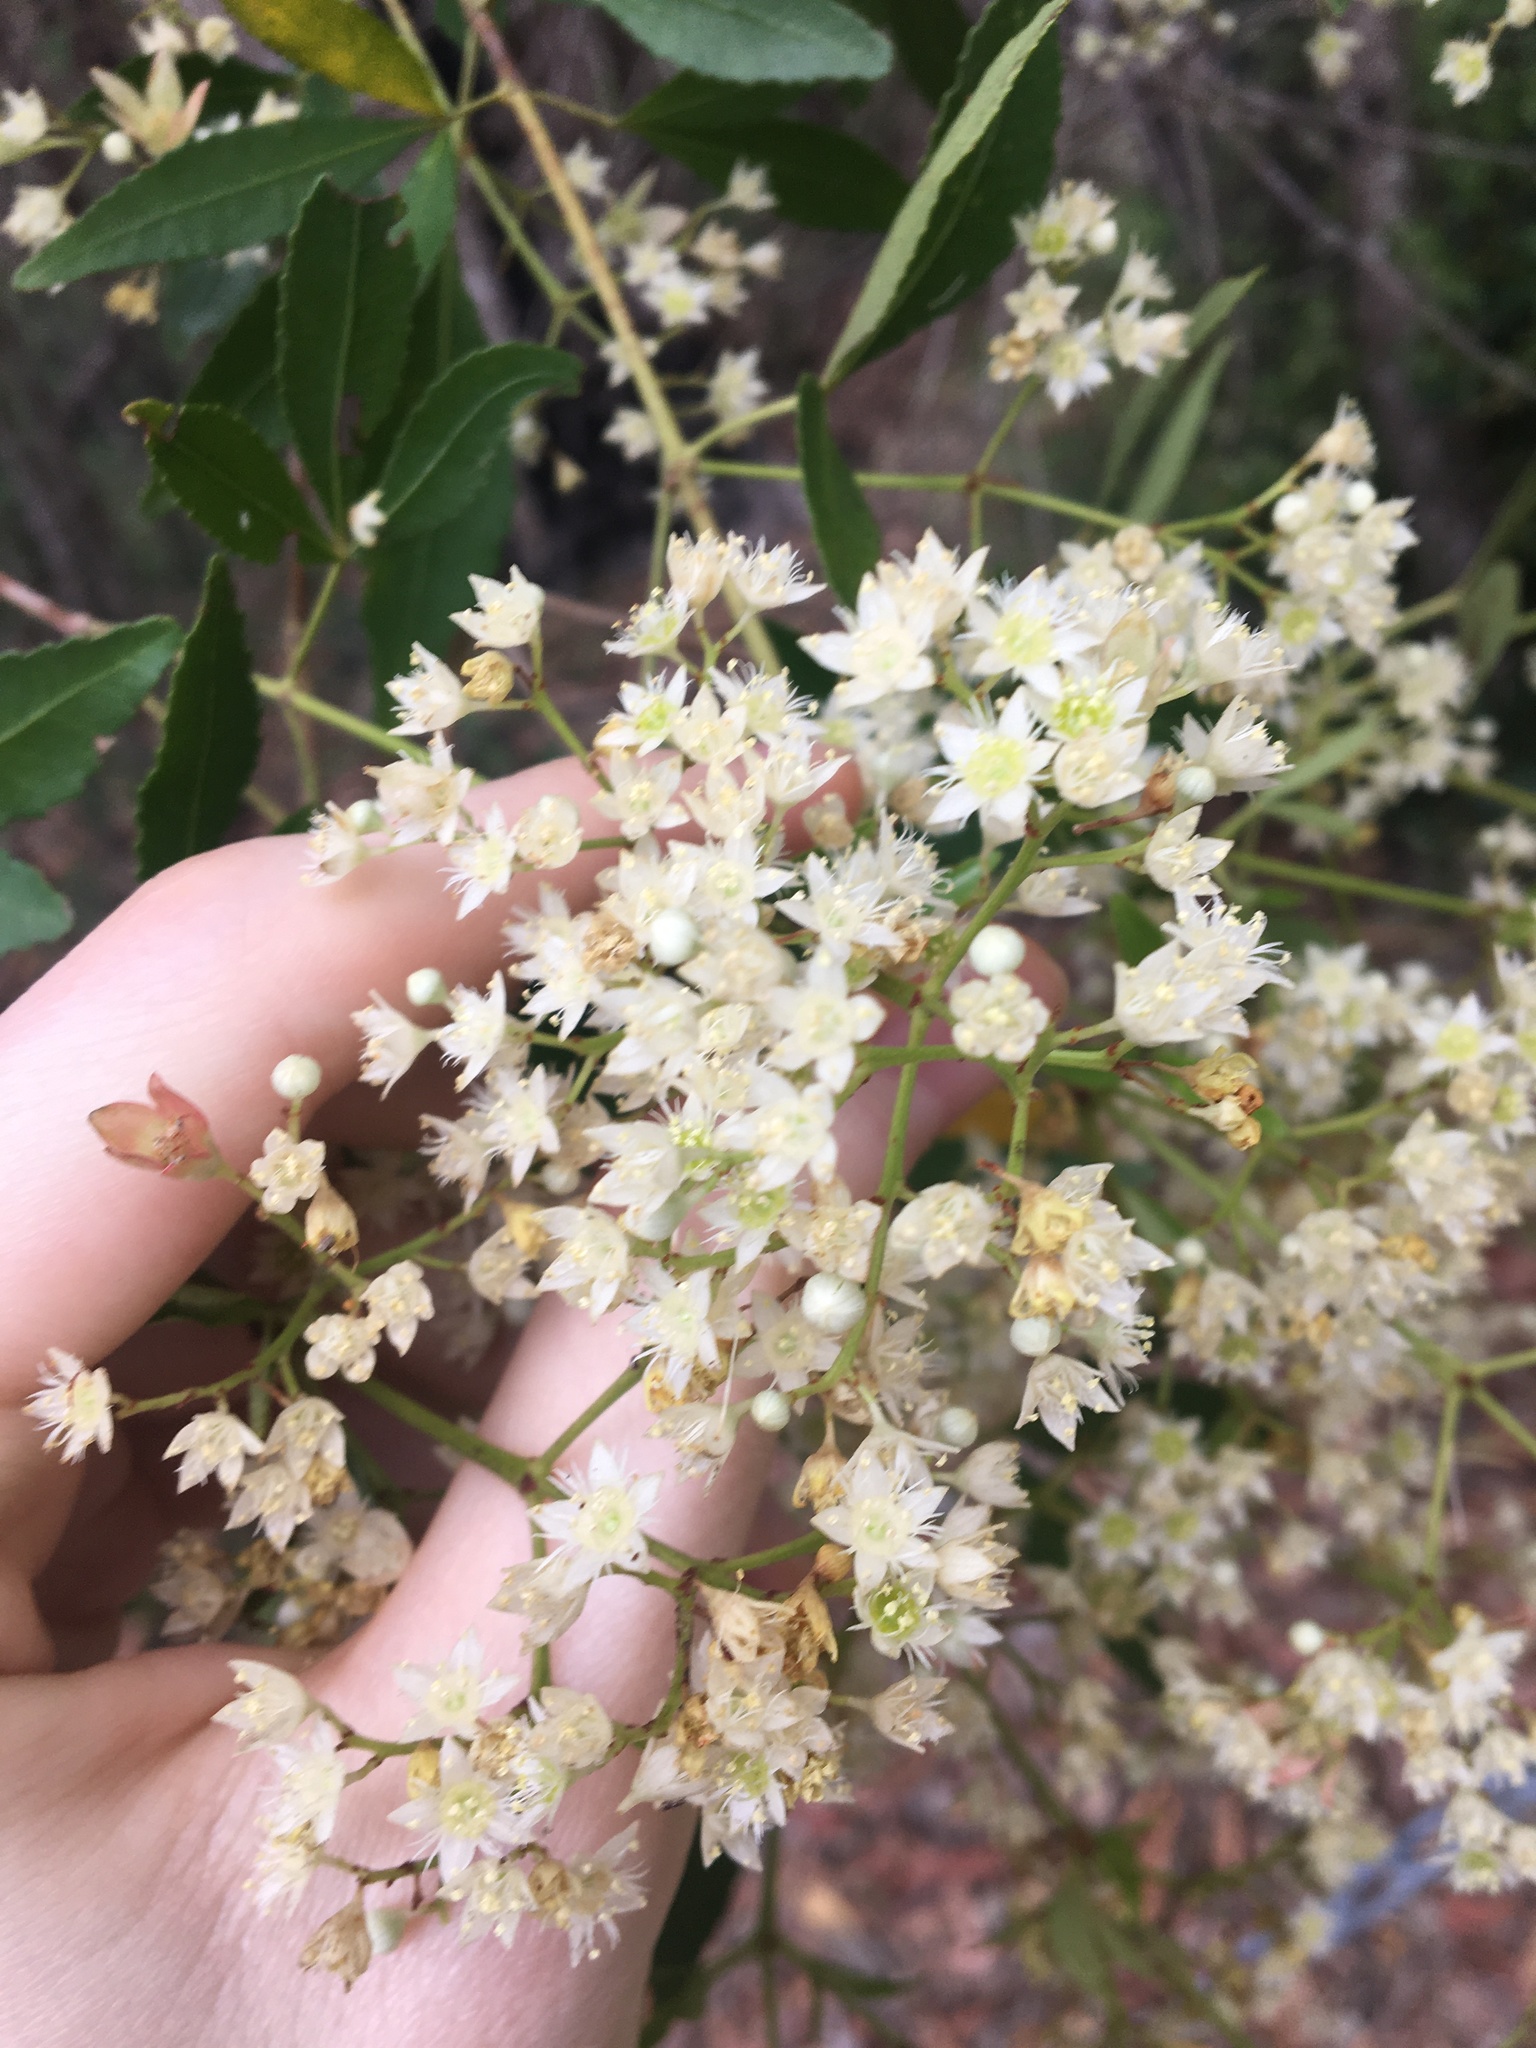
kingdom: Plantae
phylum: Tracheophyta
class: Magnoliopsida
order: Oxalidales
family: Cunoniaceae
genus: Ceratopetalum
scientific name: Ceratopetalum gummiferum
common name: Christmasbush
